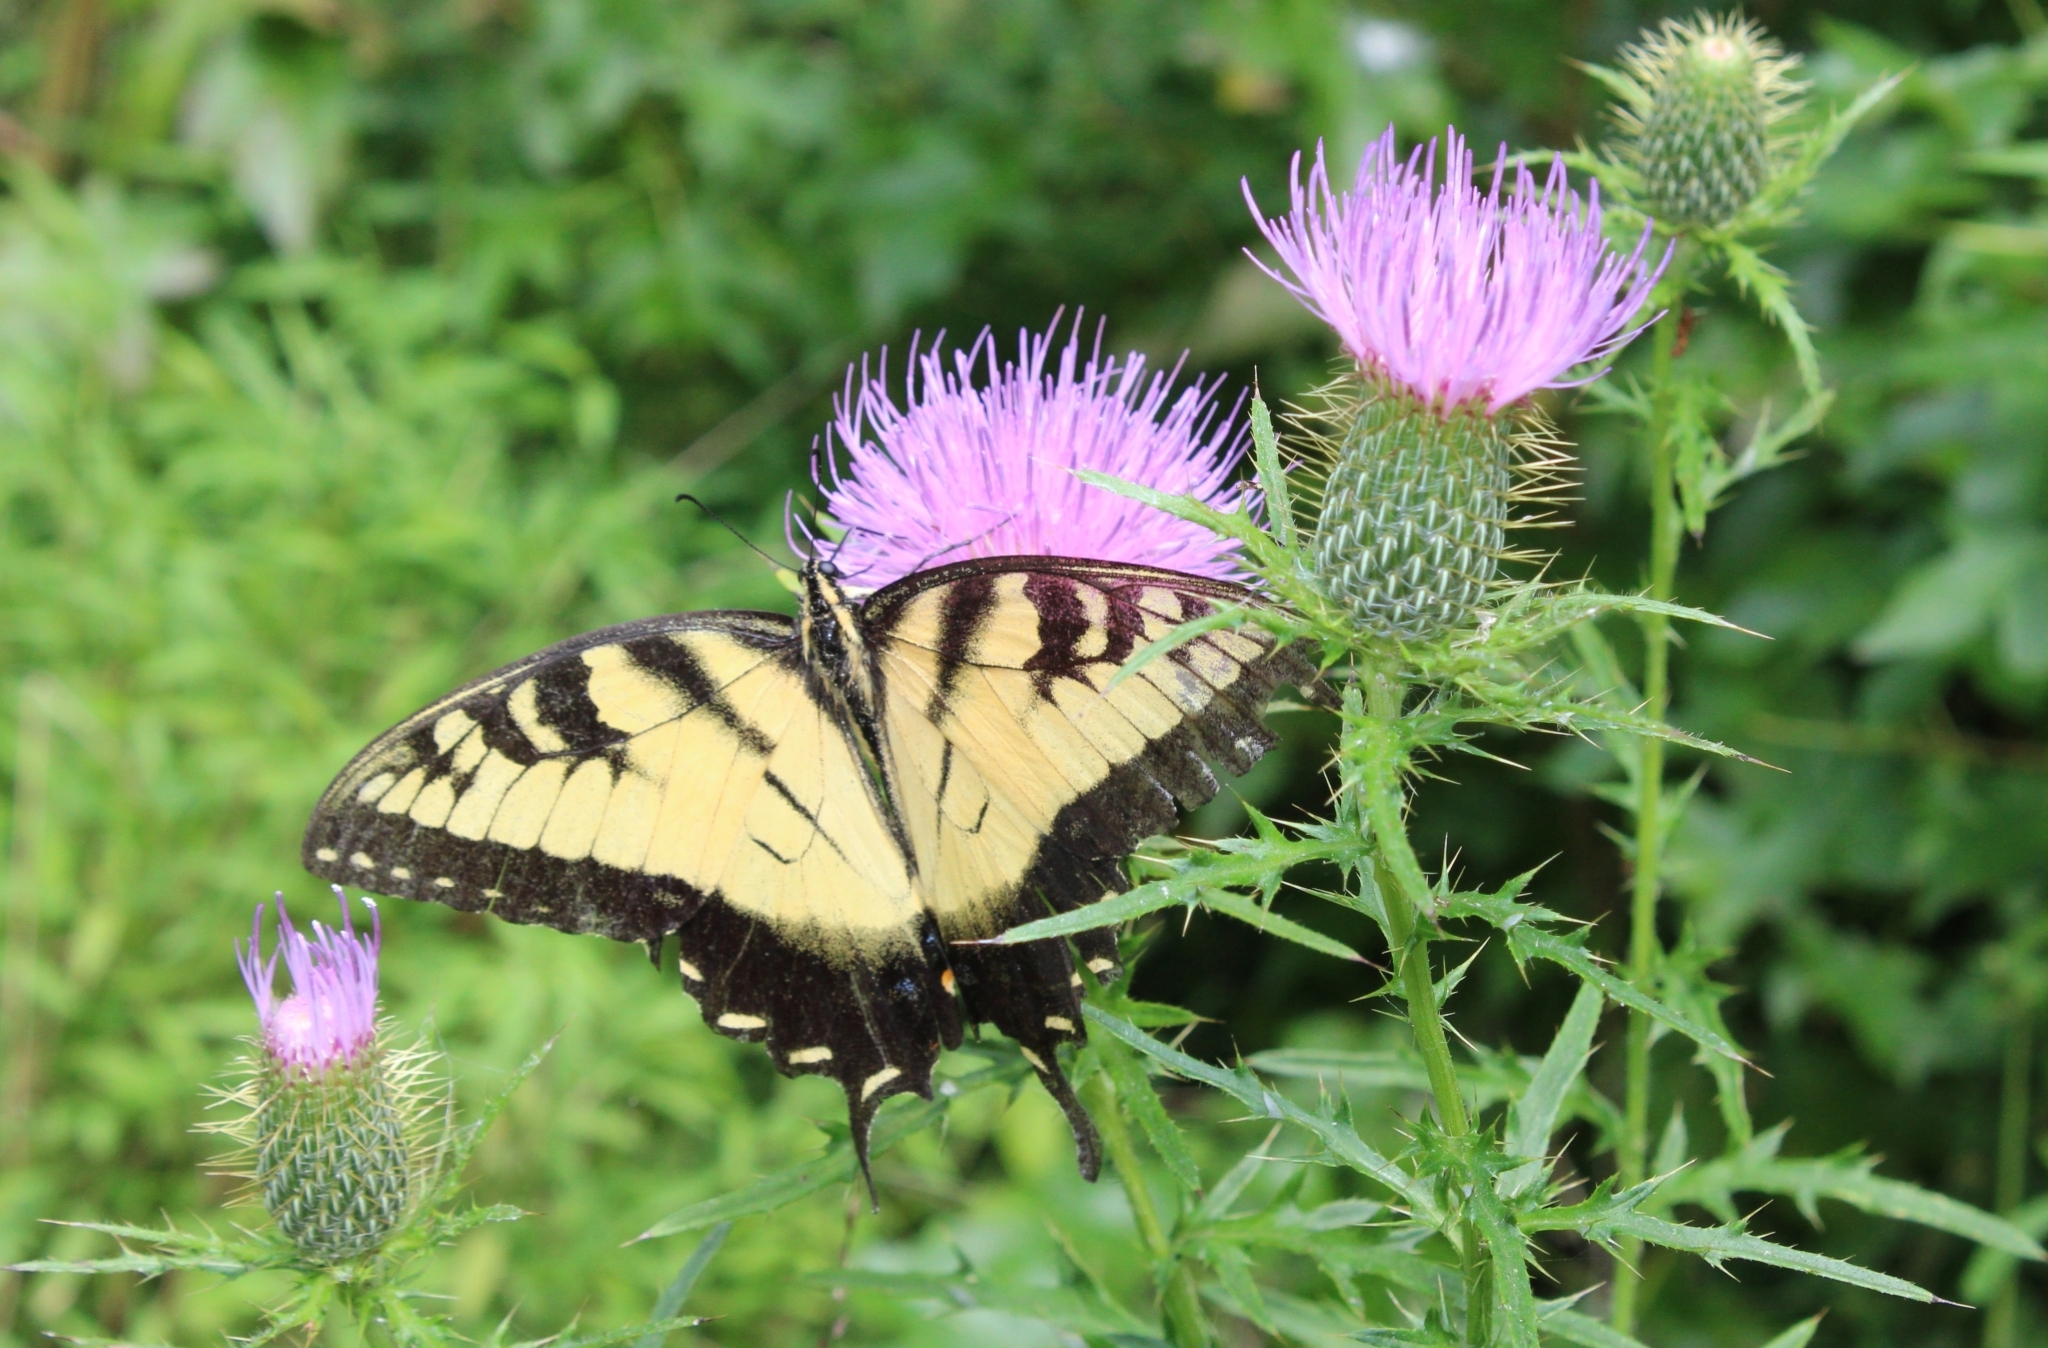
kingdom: Animalia
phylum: Arthropoda
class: Insecta
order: Lepidoptera
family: Papilionidae
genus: Papilio
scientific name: Papilio glaucus
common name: Tiger swallowtail
